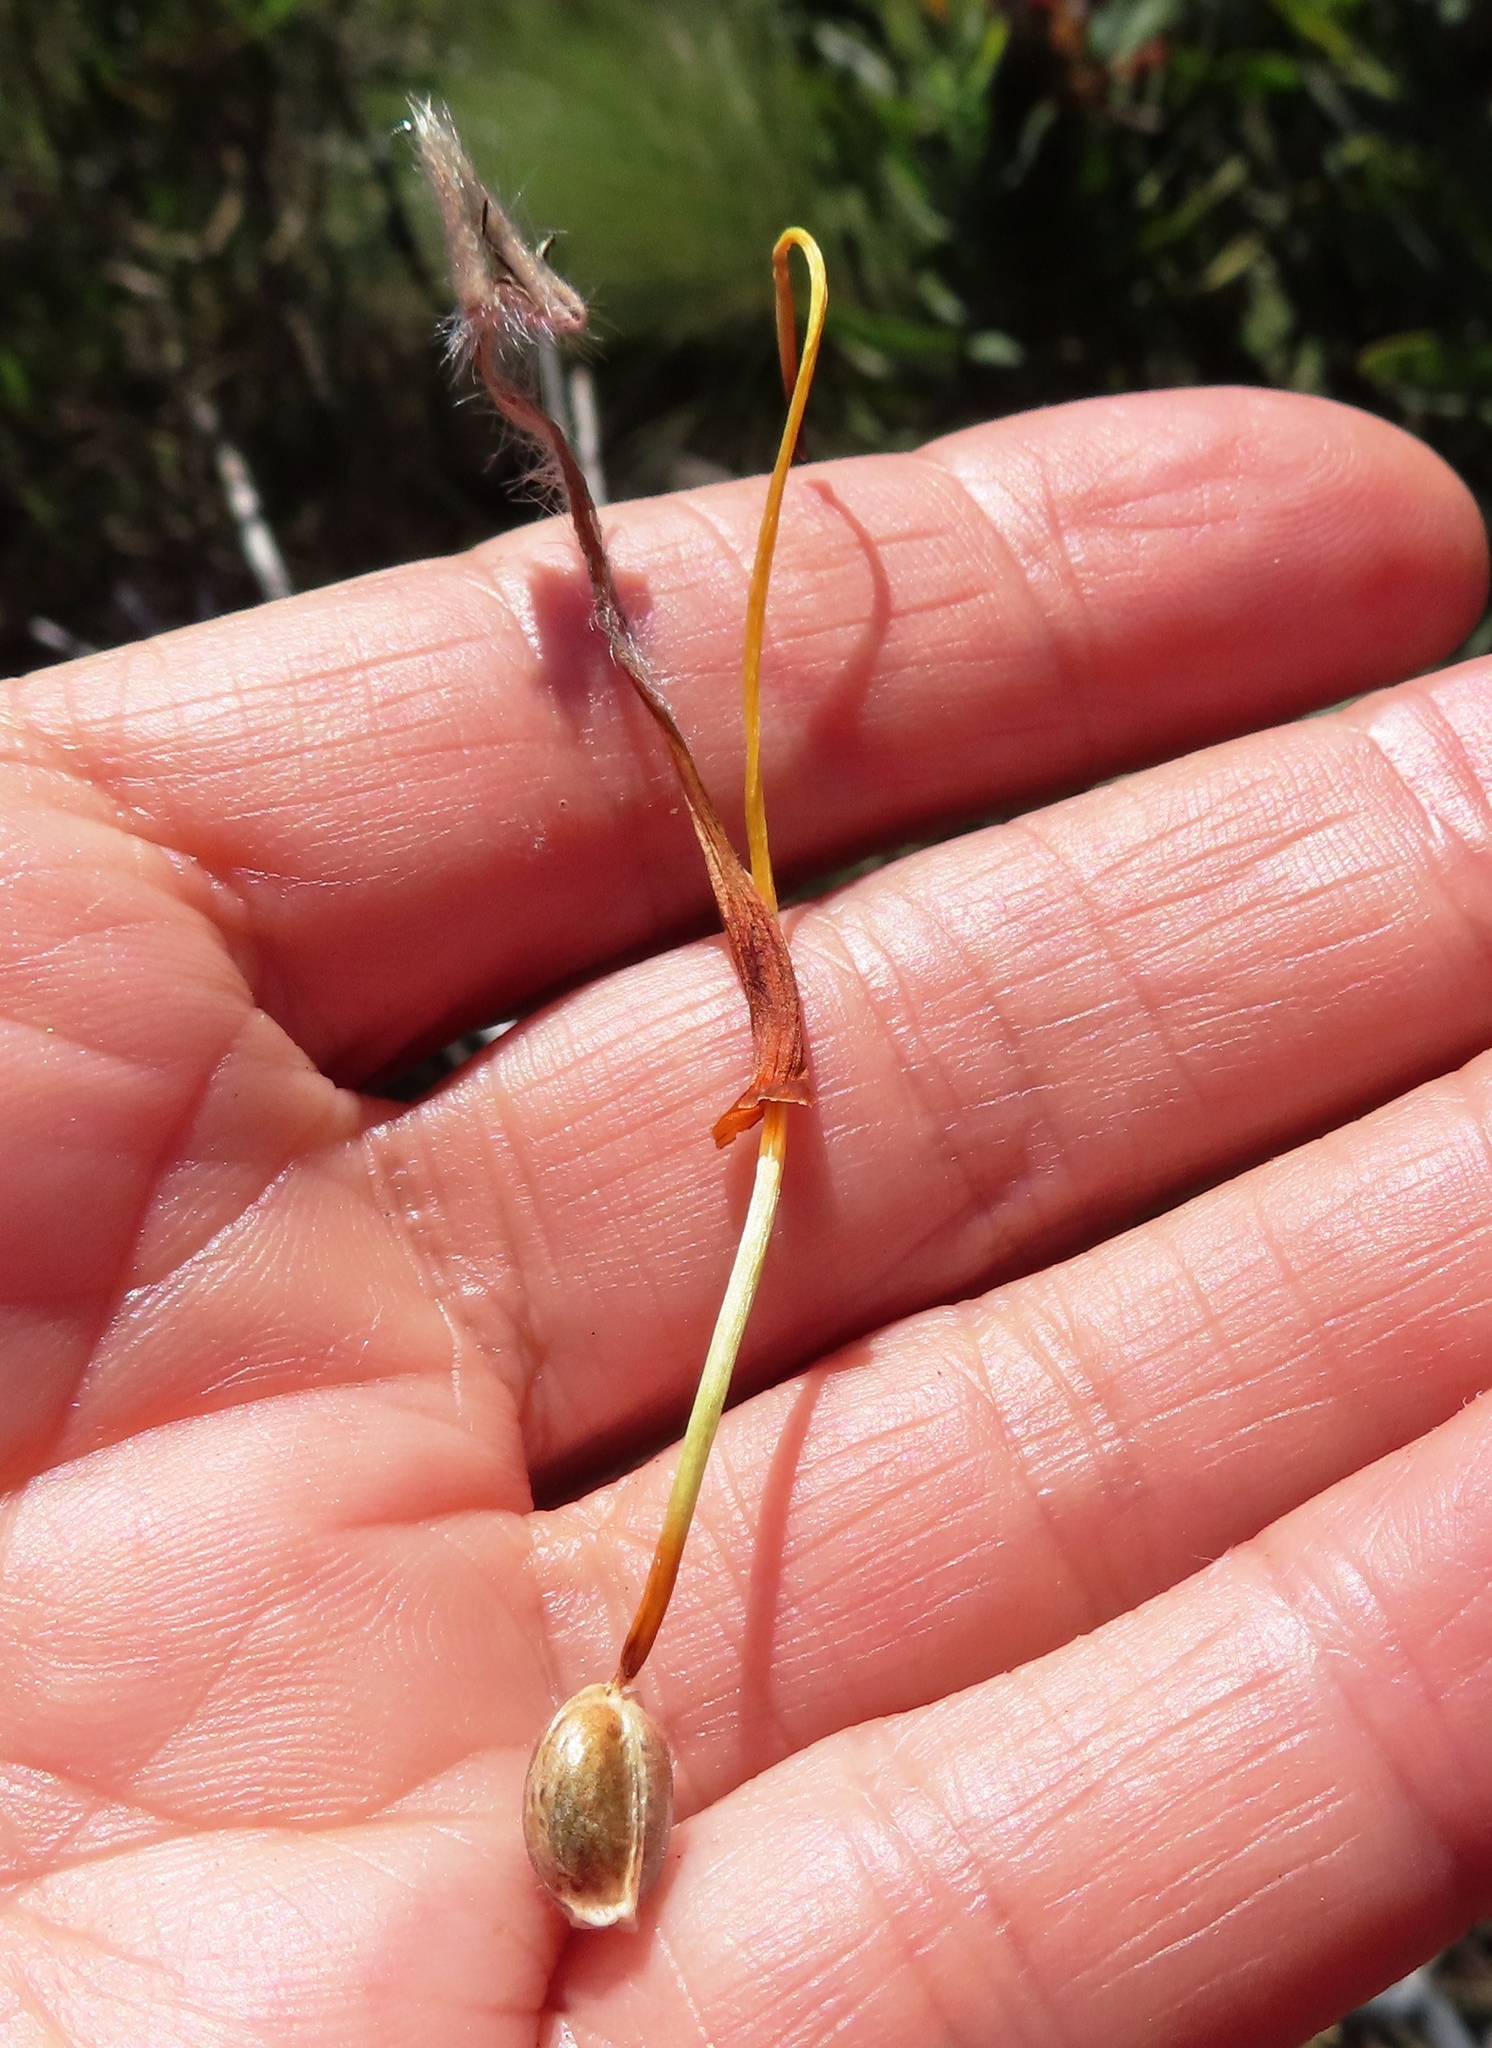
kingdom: Plantae
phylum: Tracheophyta
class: Magnoliopsida
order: Proteales
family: Proteaceae
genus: Leucospermum
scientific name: Leucospermum gueinzii
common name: Kloof fountain pincushion
